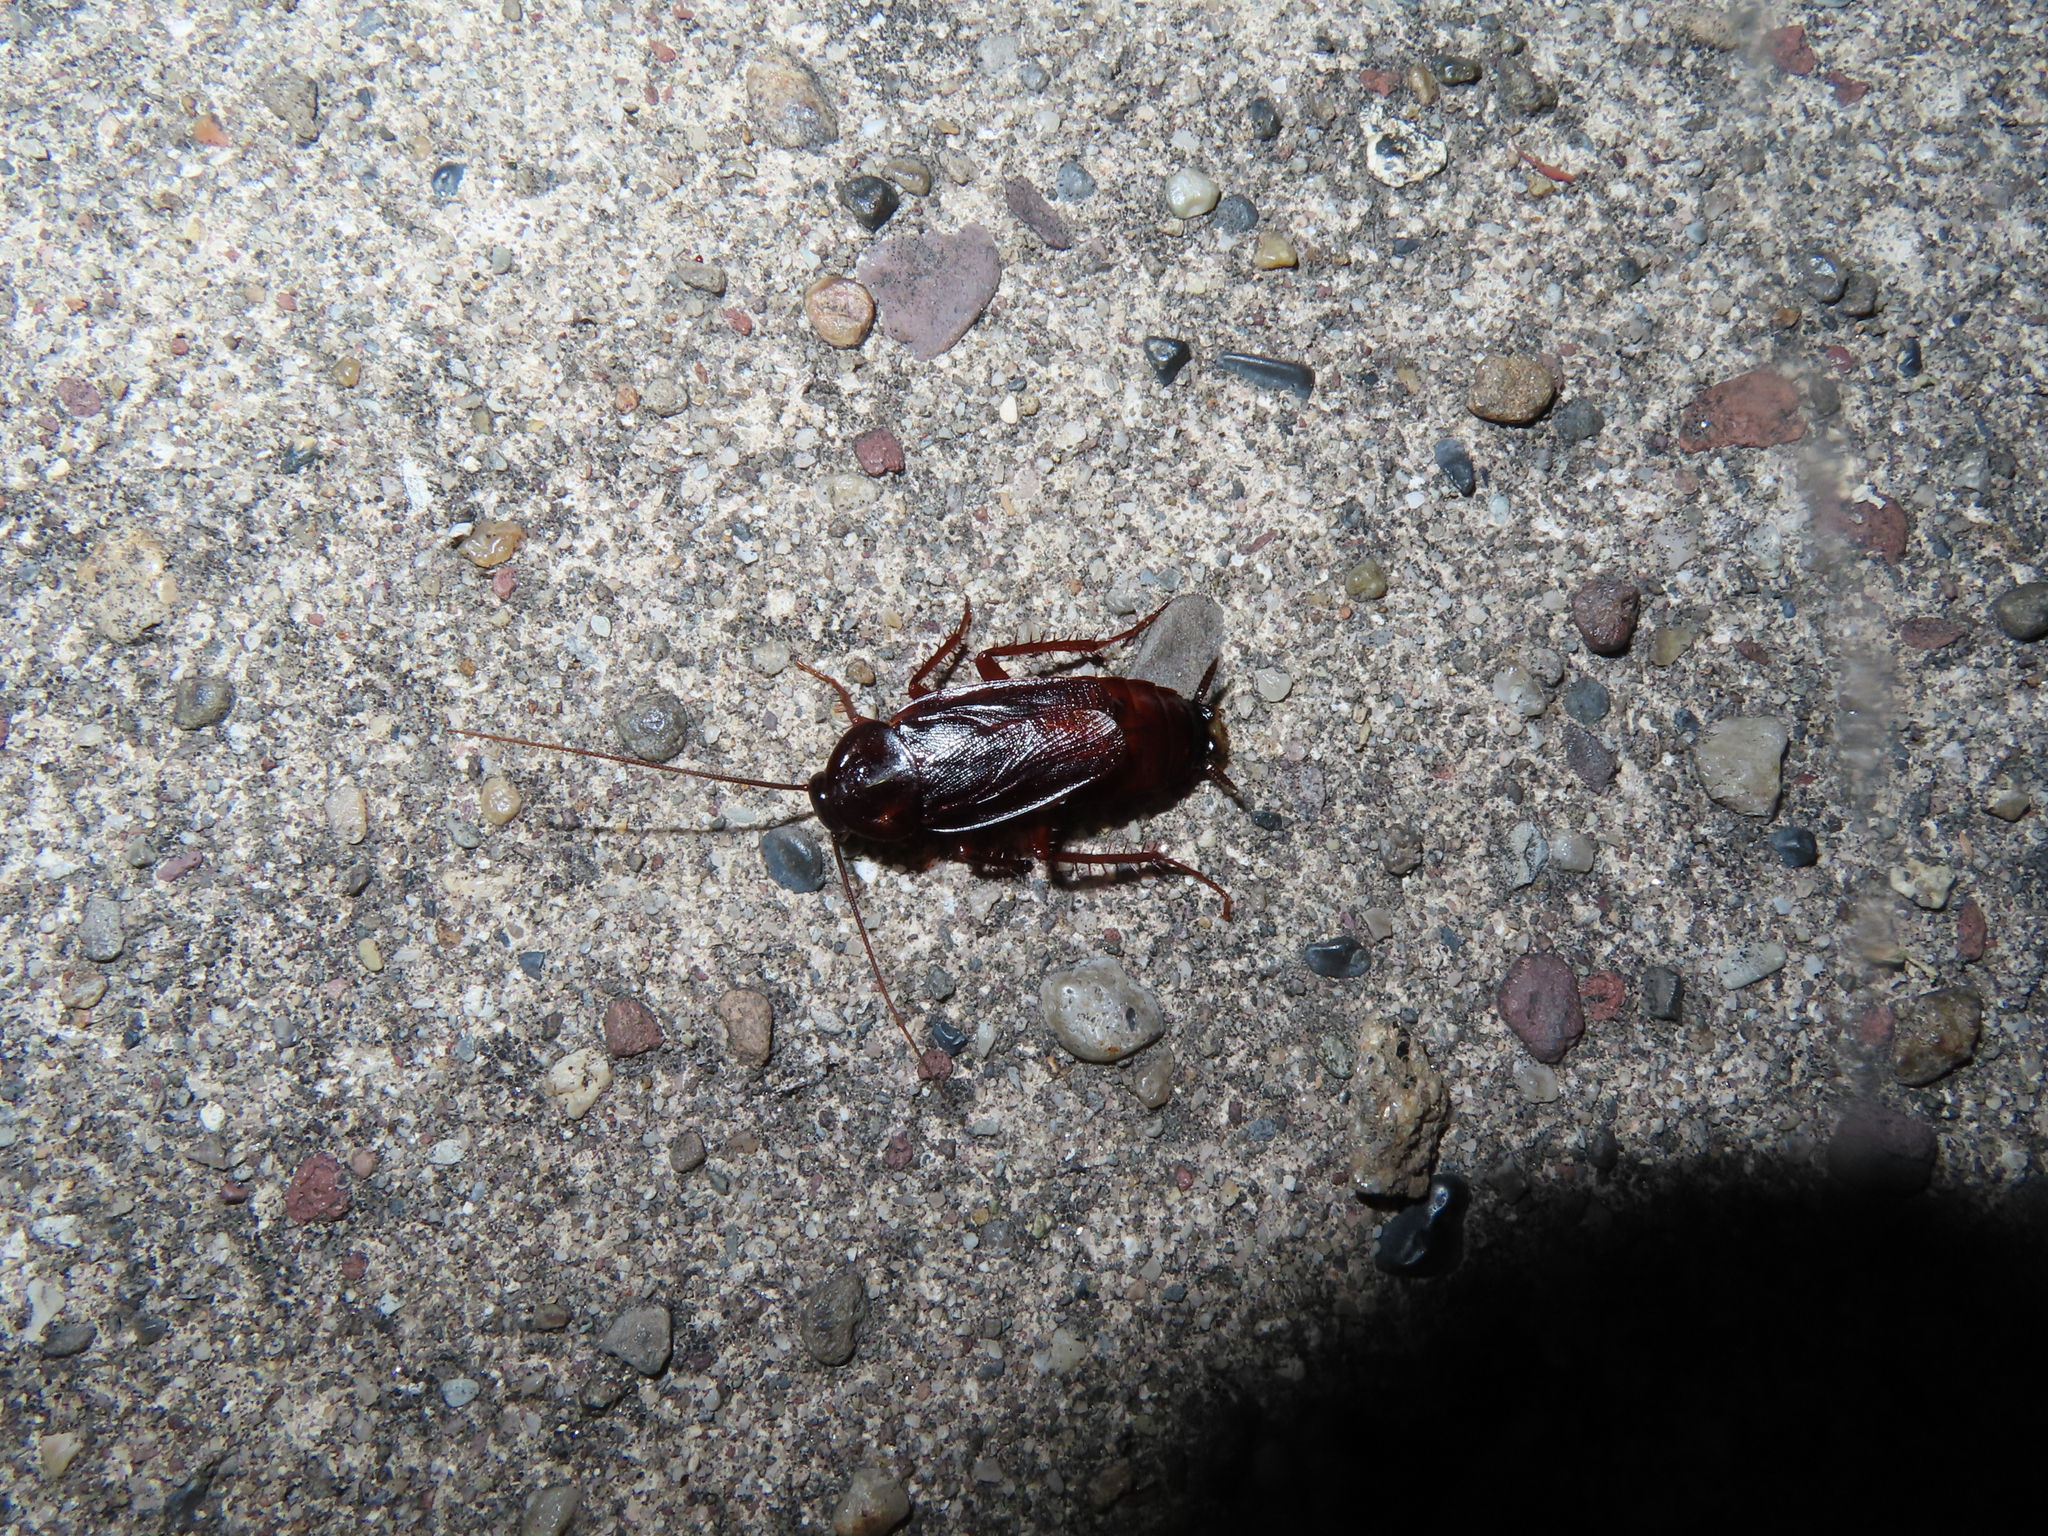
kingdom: Animalia
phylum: Arthropoda
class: Insecta
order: Blattodea
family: Blattidae
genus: Blatta
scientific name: Blatta orientalis
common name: Oriental cockroach
